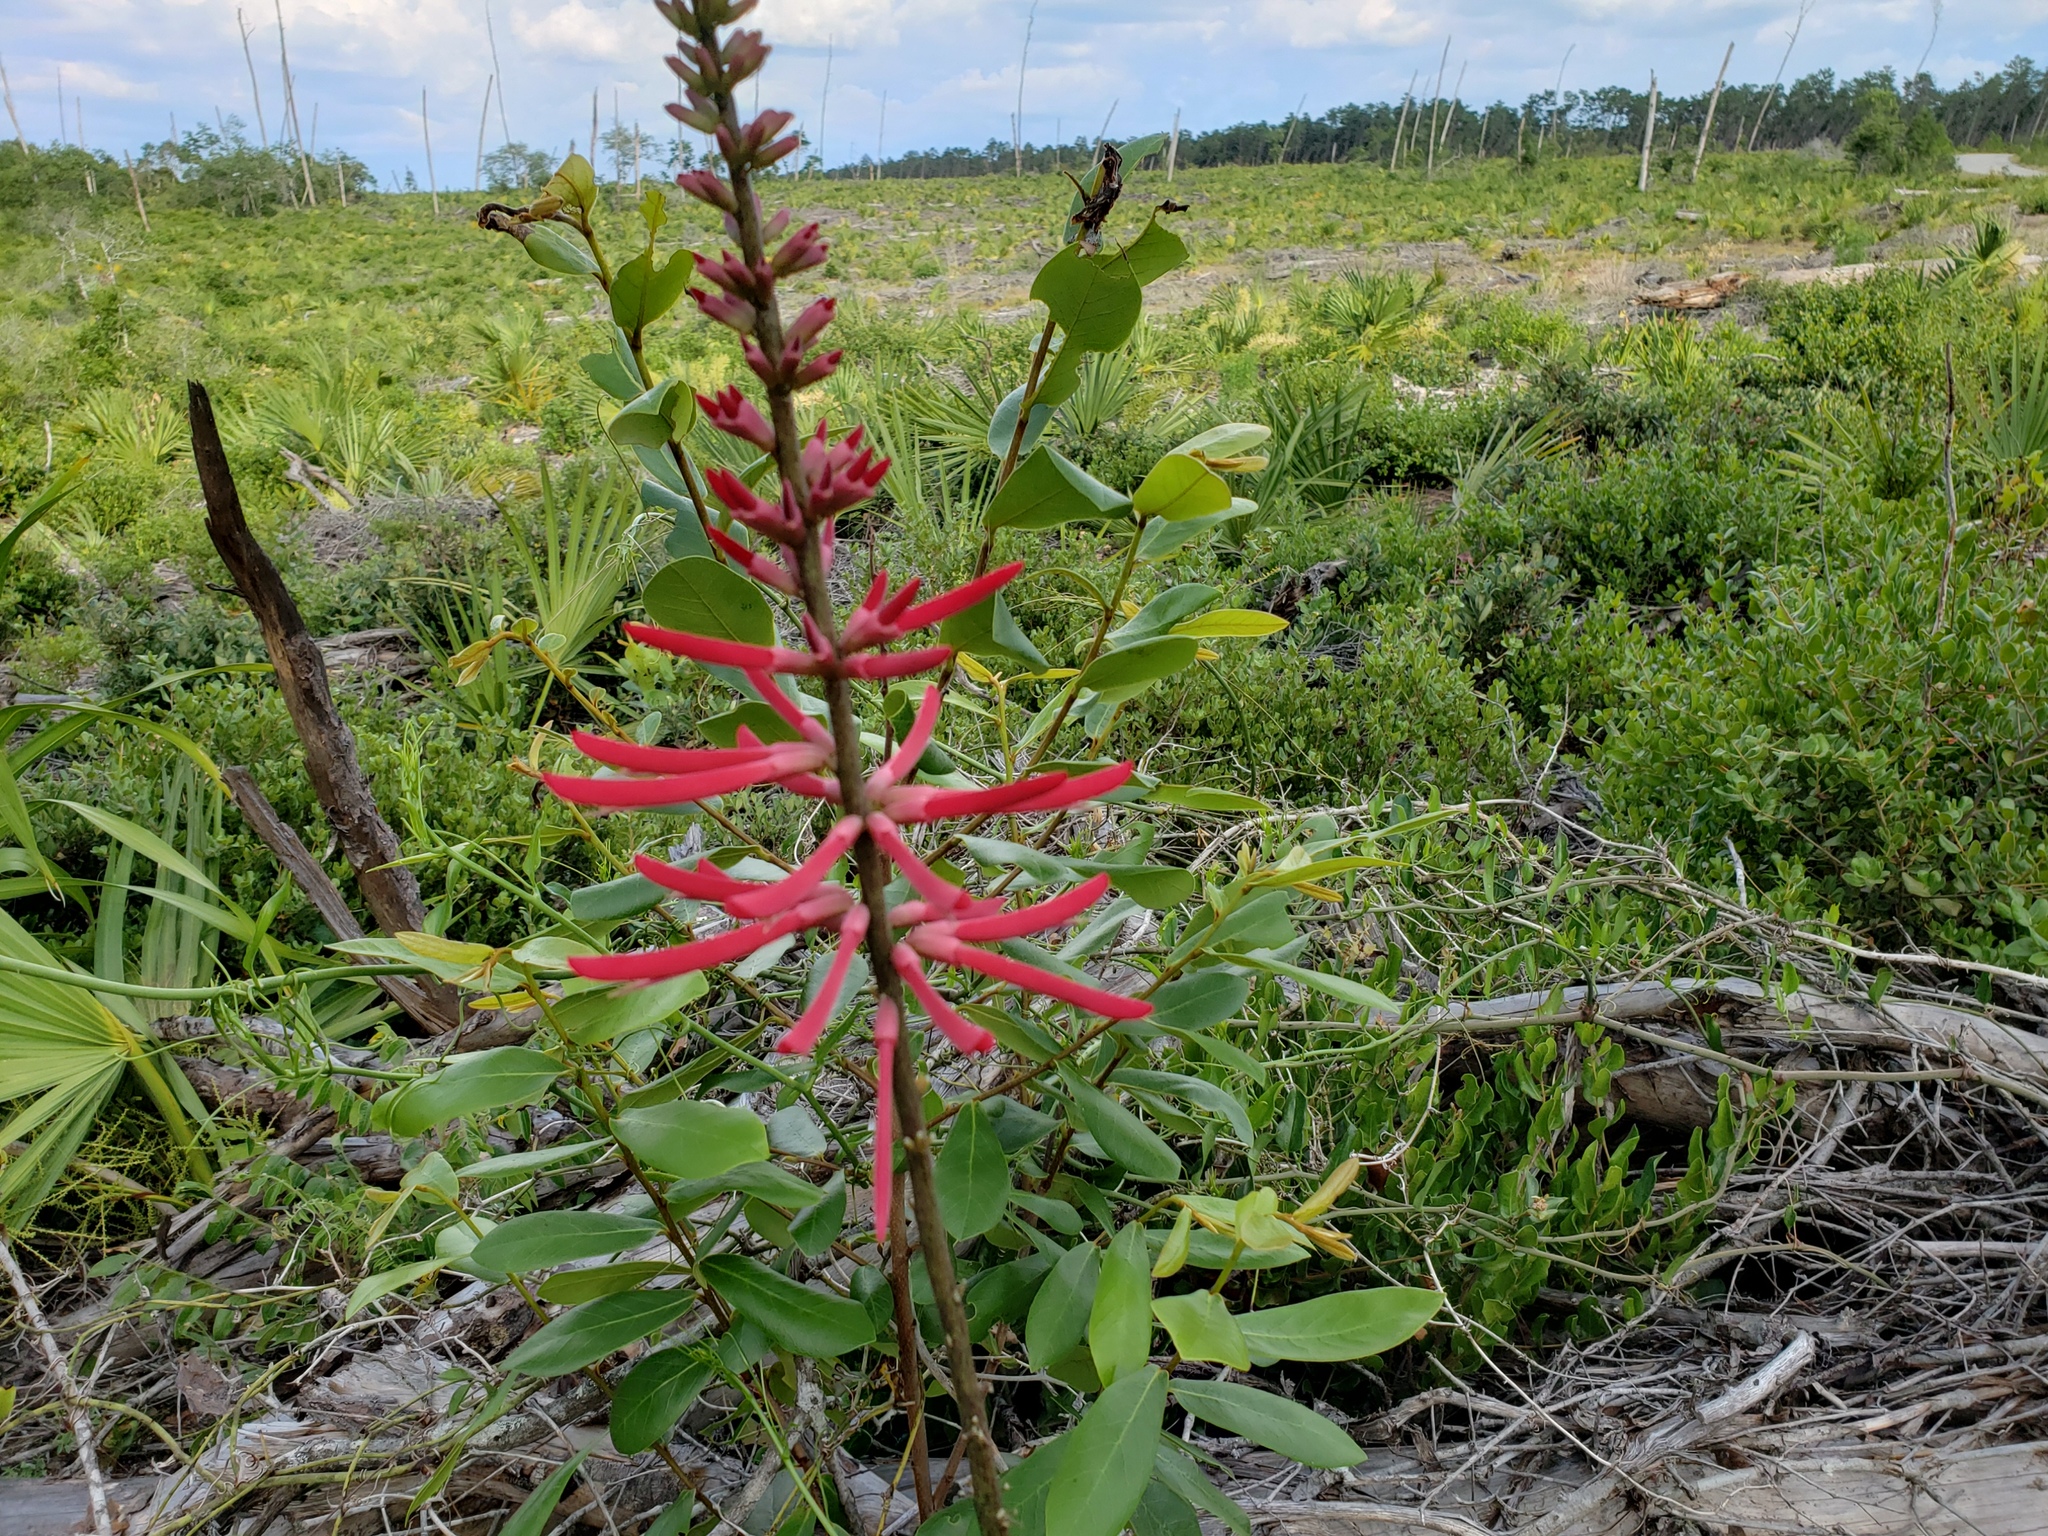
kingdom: Plantae
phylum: Tracheophyta
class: Magnoliopsida
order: Fabales
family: Fabaceae
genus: Erythrina
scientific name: Erythrina herbacea
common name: Coral-bean
